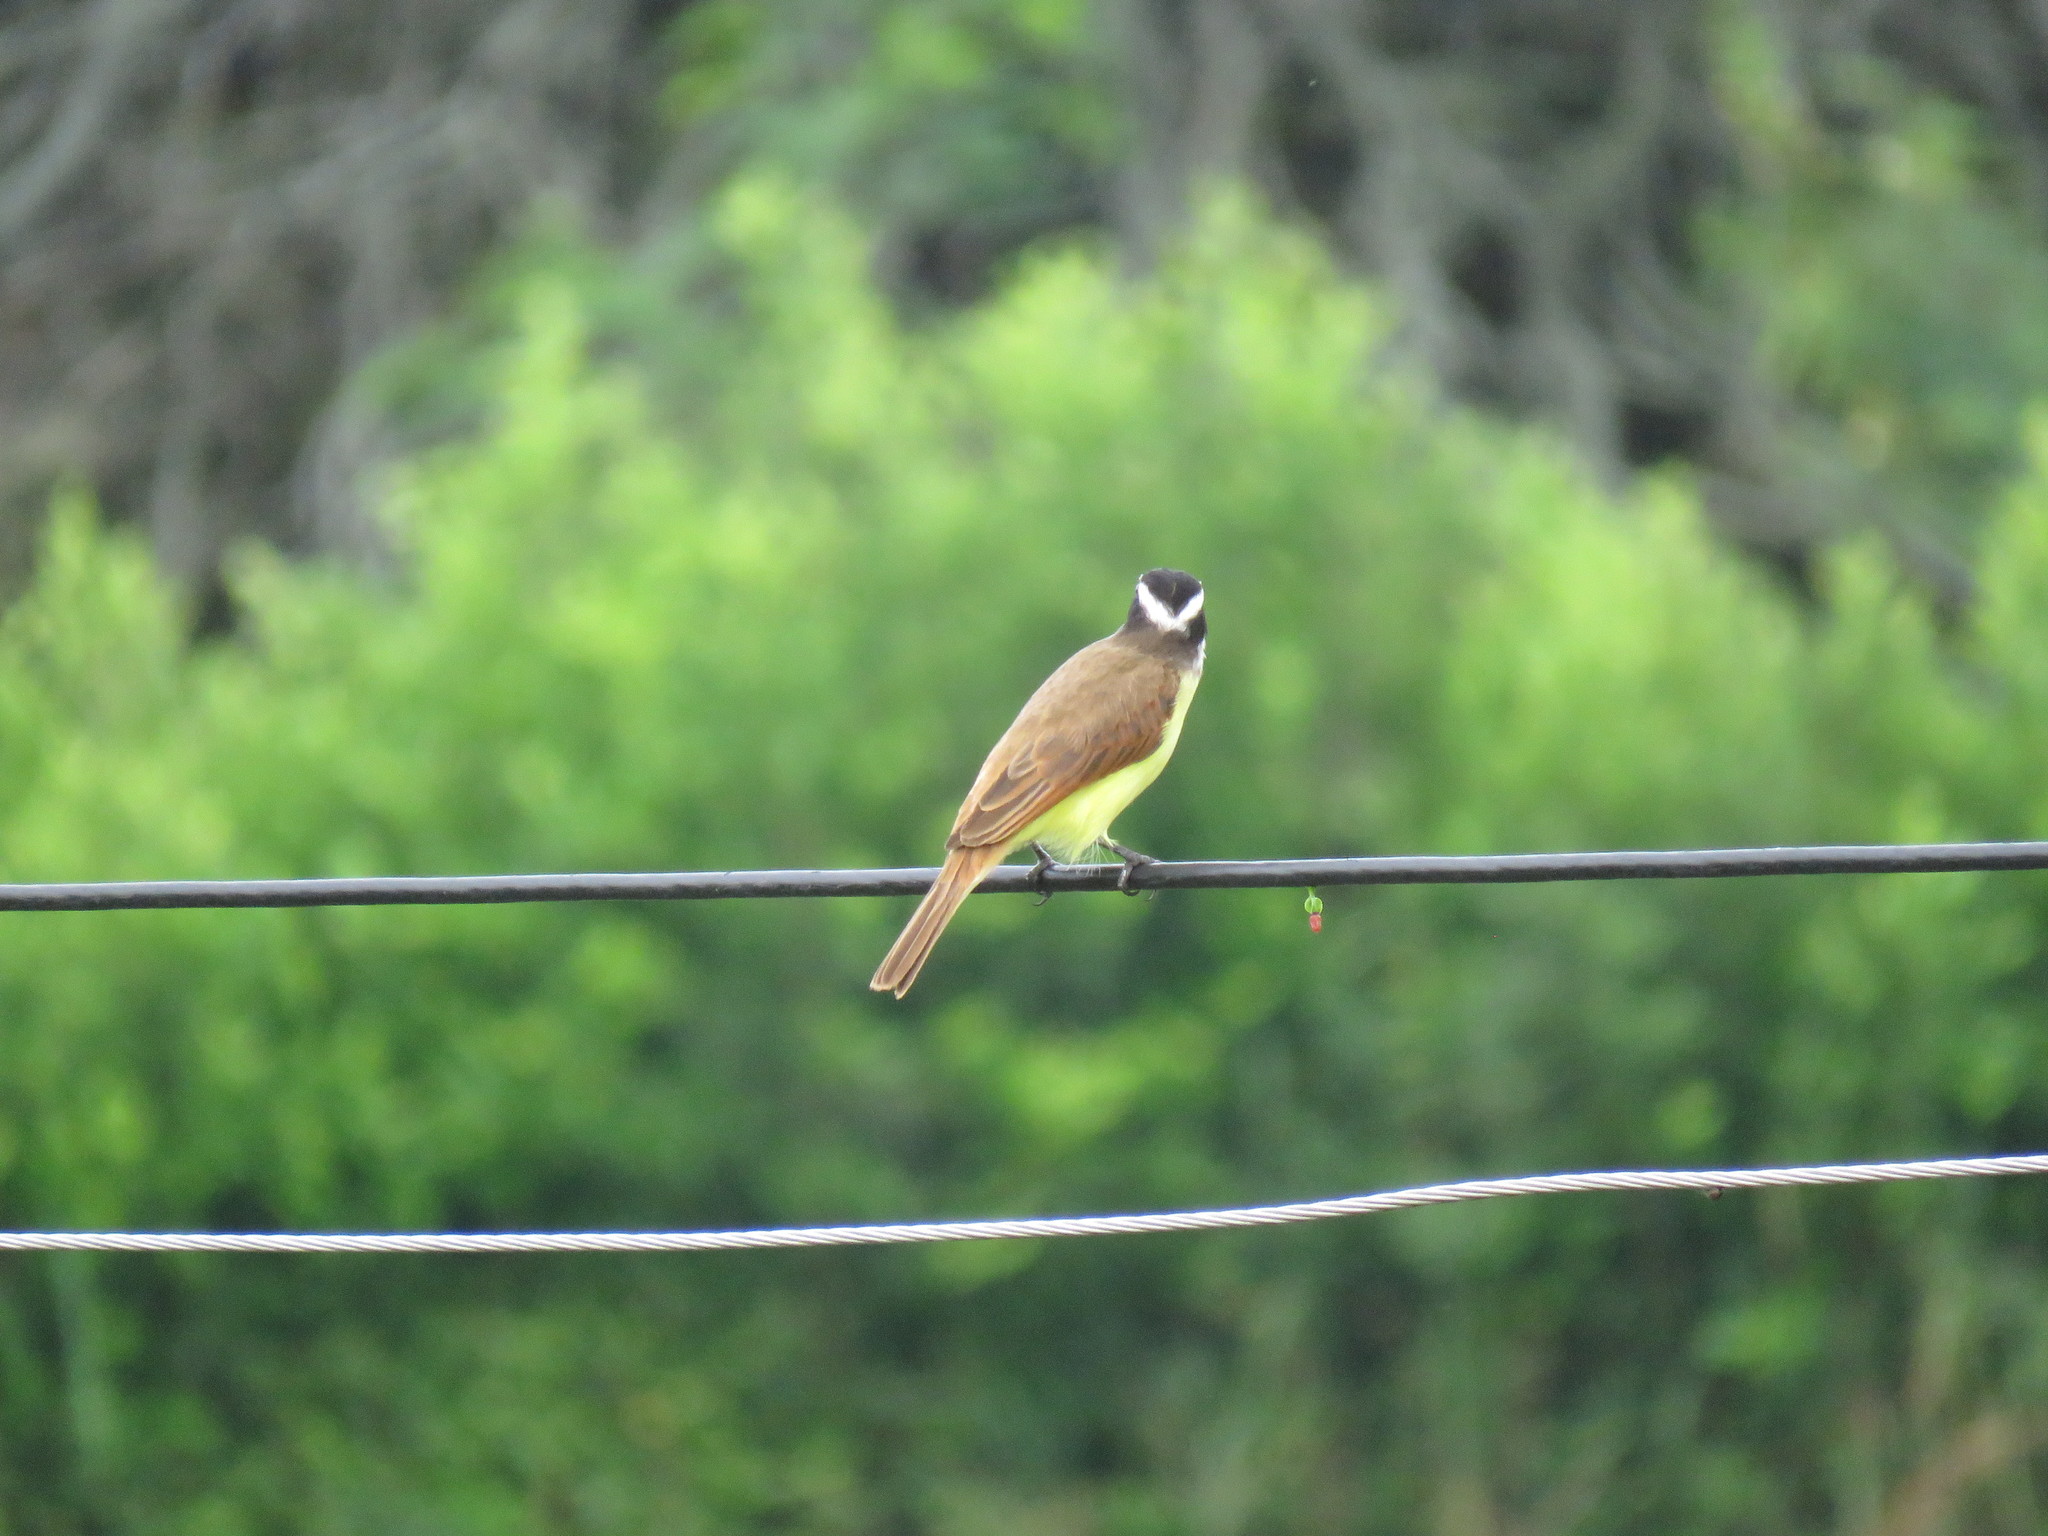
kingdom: Animalia
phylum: Chordata
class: Aves
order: Passeriformes
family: Tyrannidae
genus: Pitangus
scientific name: Pitangus lictor
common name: Lesser kiskadee
